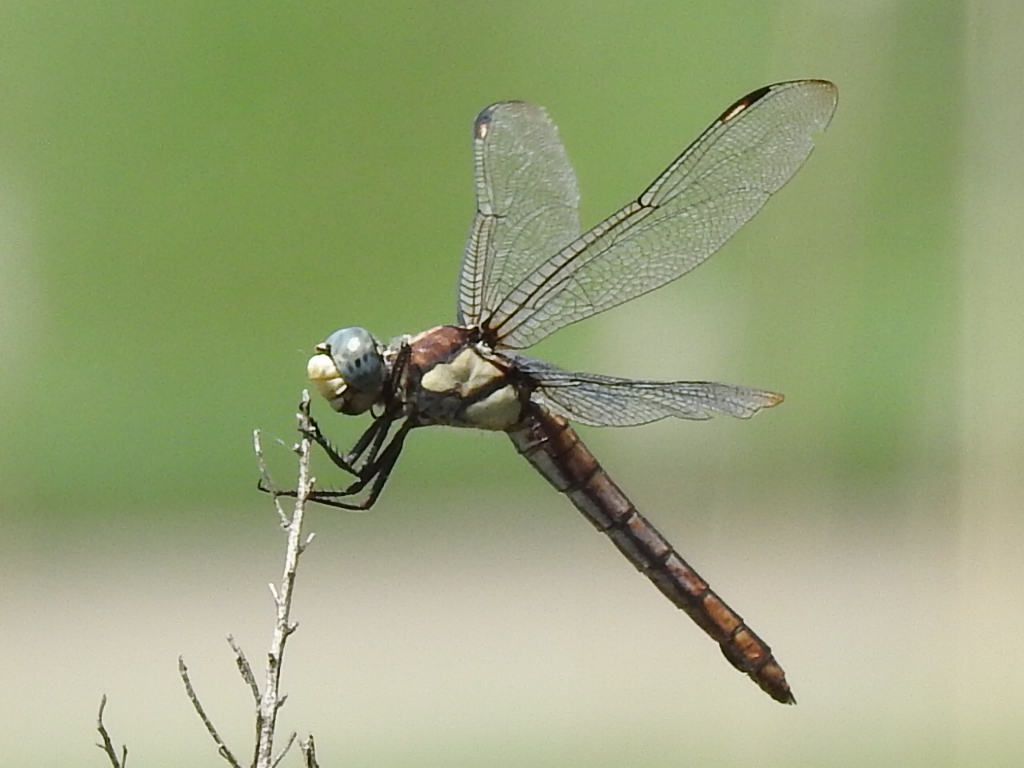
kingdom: Animalia
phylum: Arthropoda
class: Insecta
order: Odonata
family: Libellulidae
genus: Libellula
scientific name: Libellula comanche
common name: Comanche skimmer
